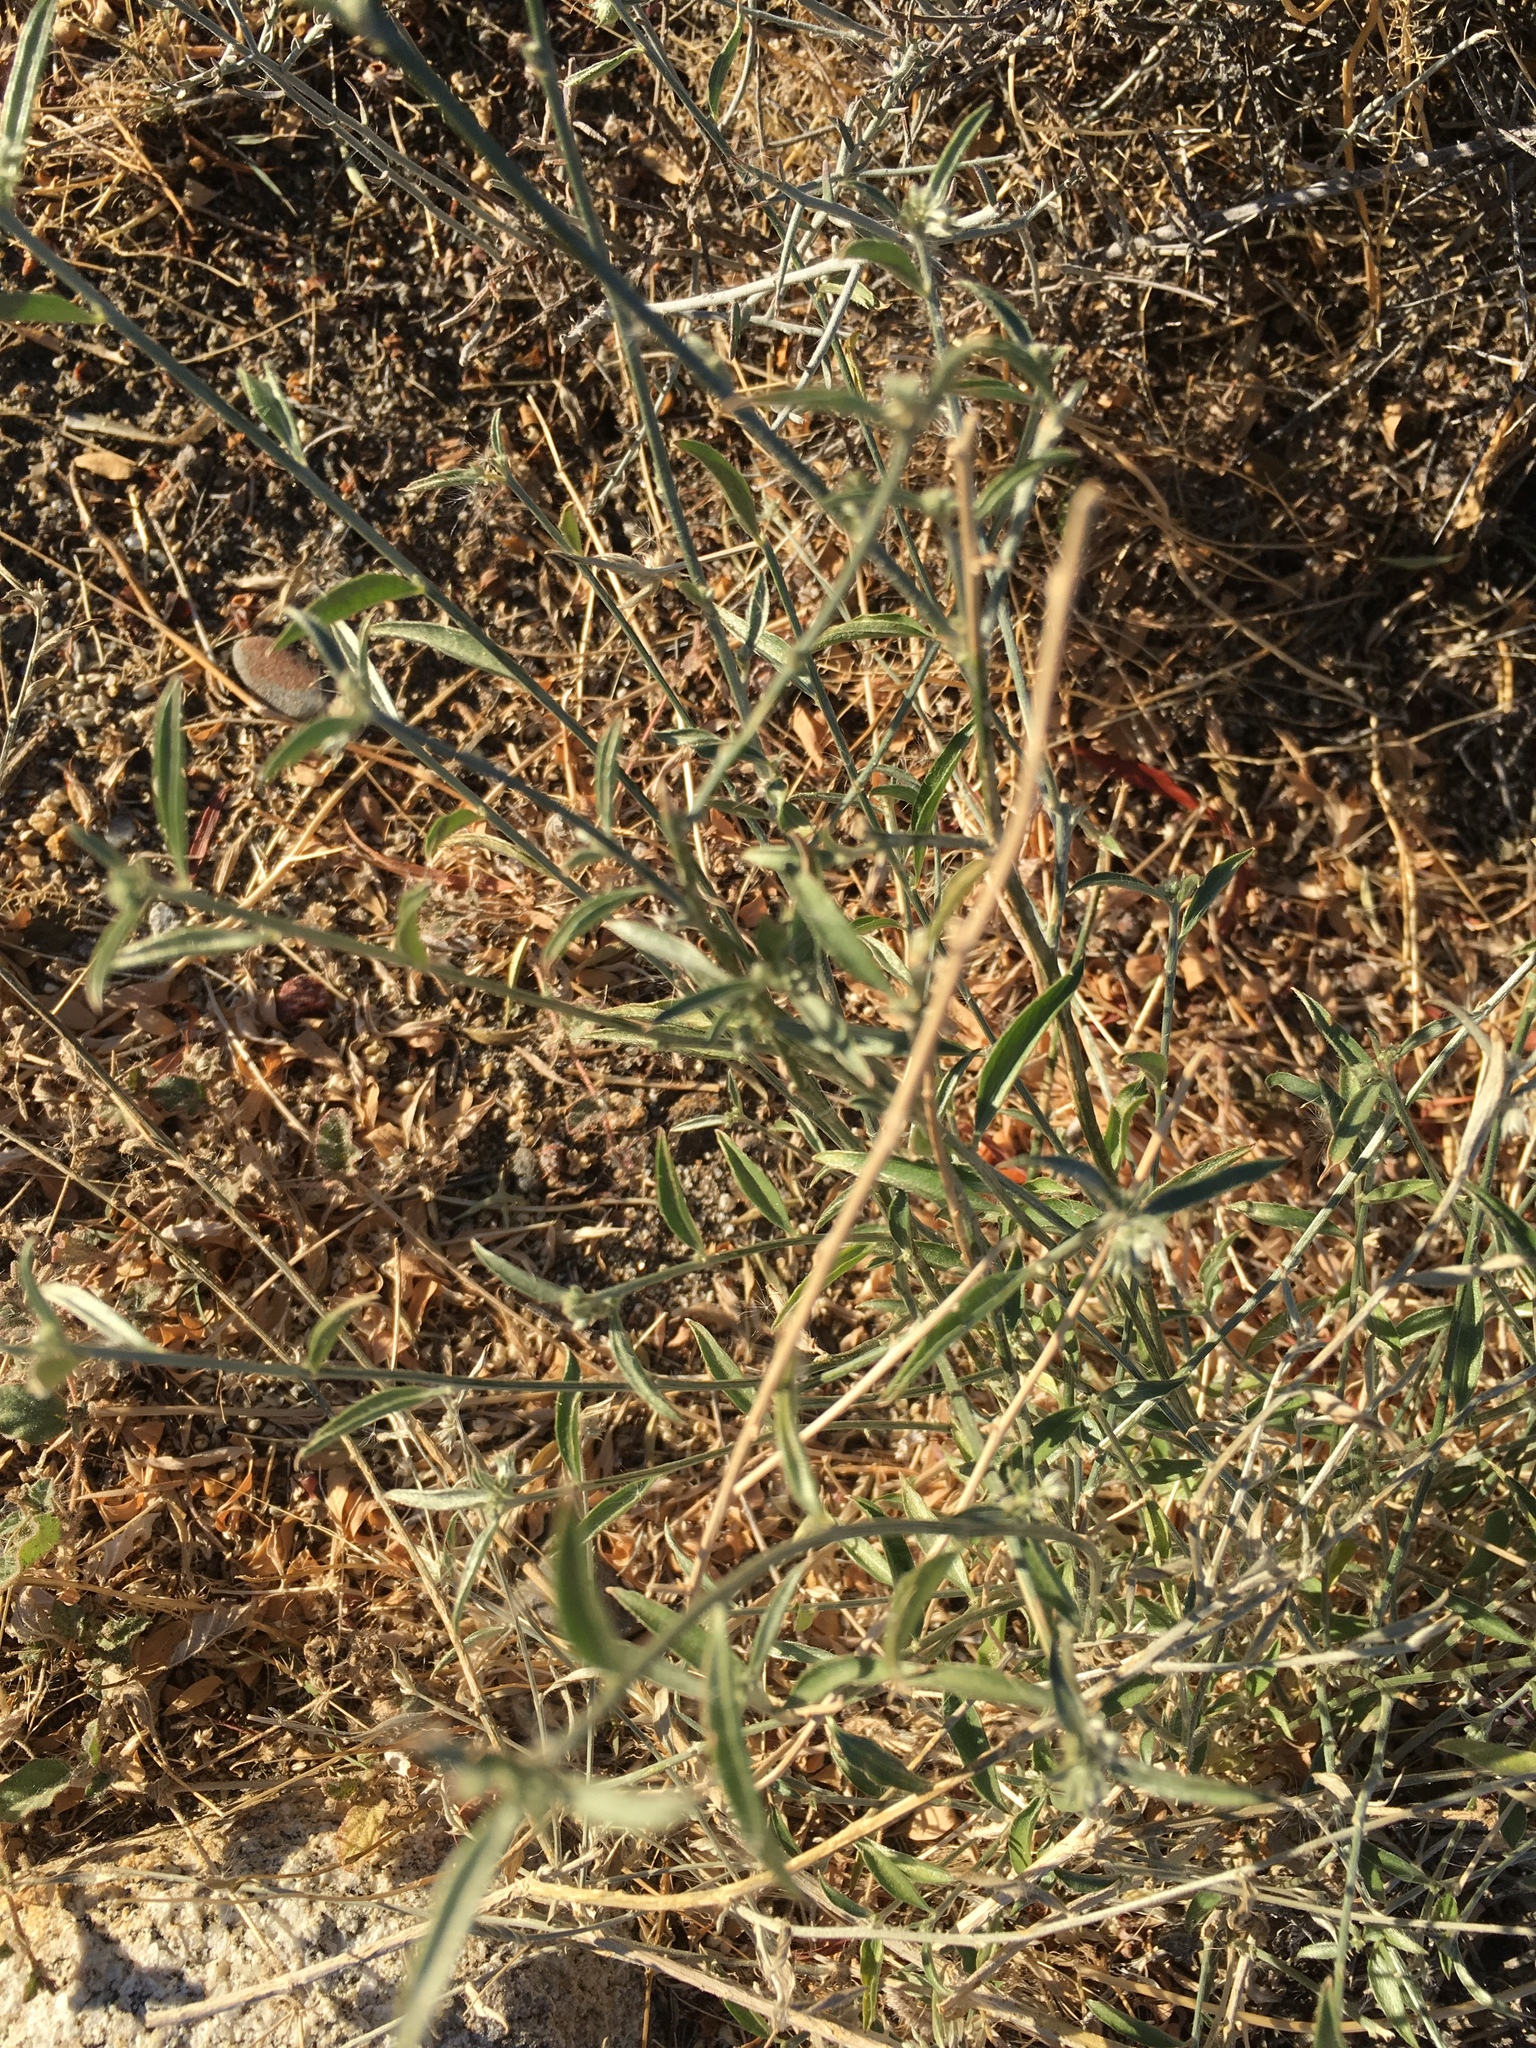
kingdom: Plantae
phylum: Tracheophyta
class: Magnoliopsida
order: Malpighiales
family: Euphorbiaceae
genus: Ditaxis
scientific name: Ditaxis lanceolata
